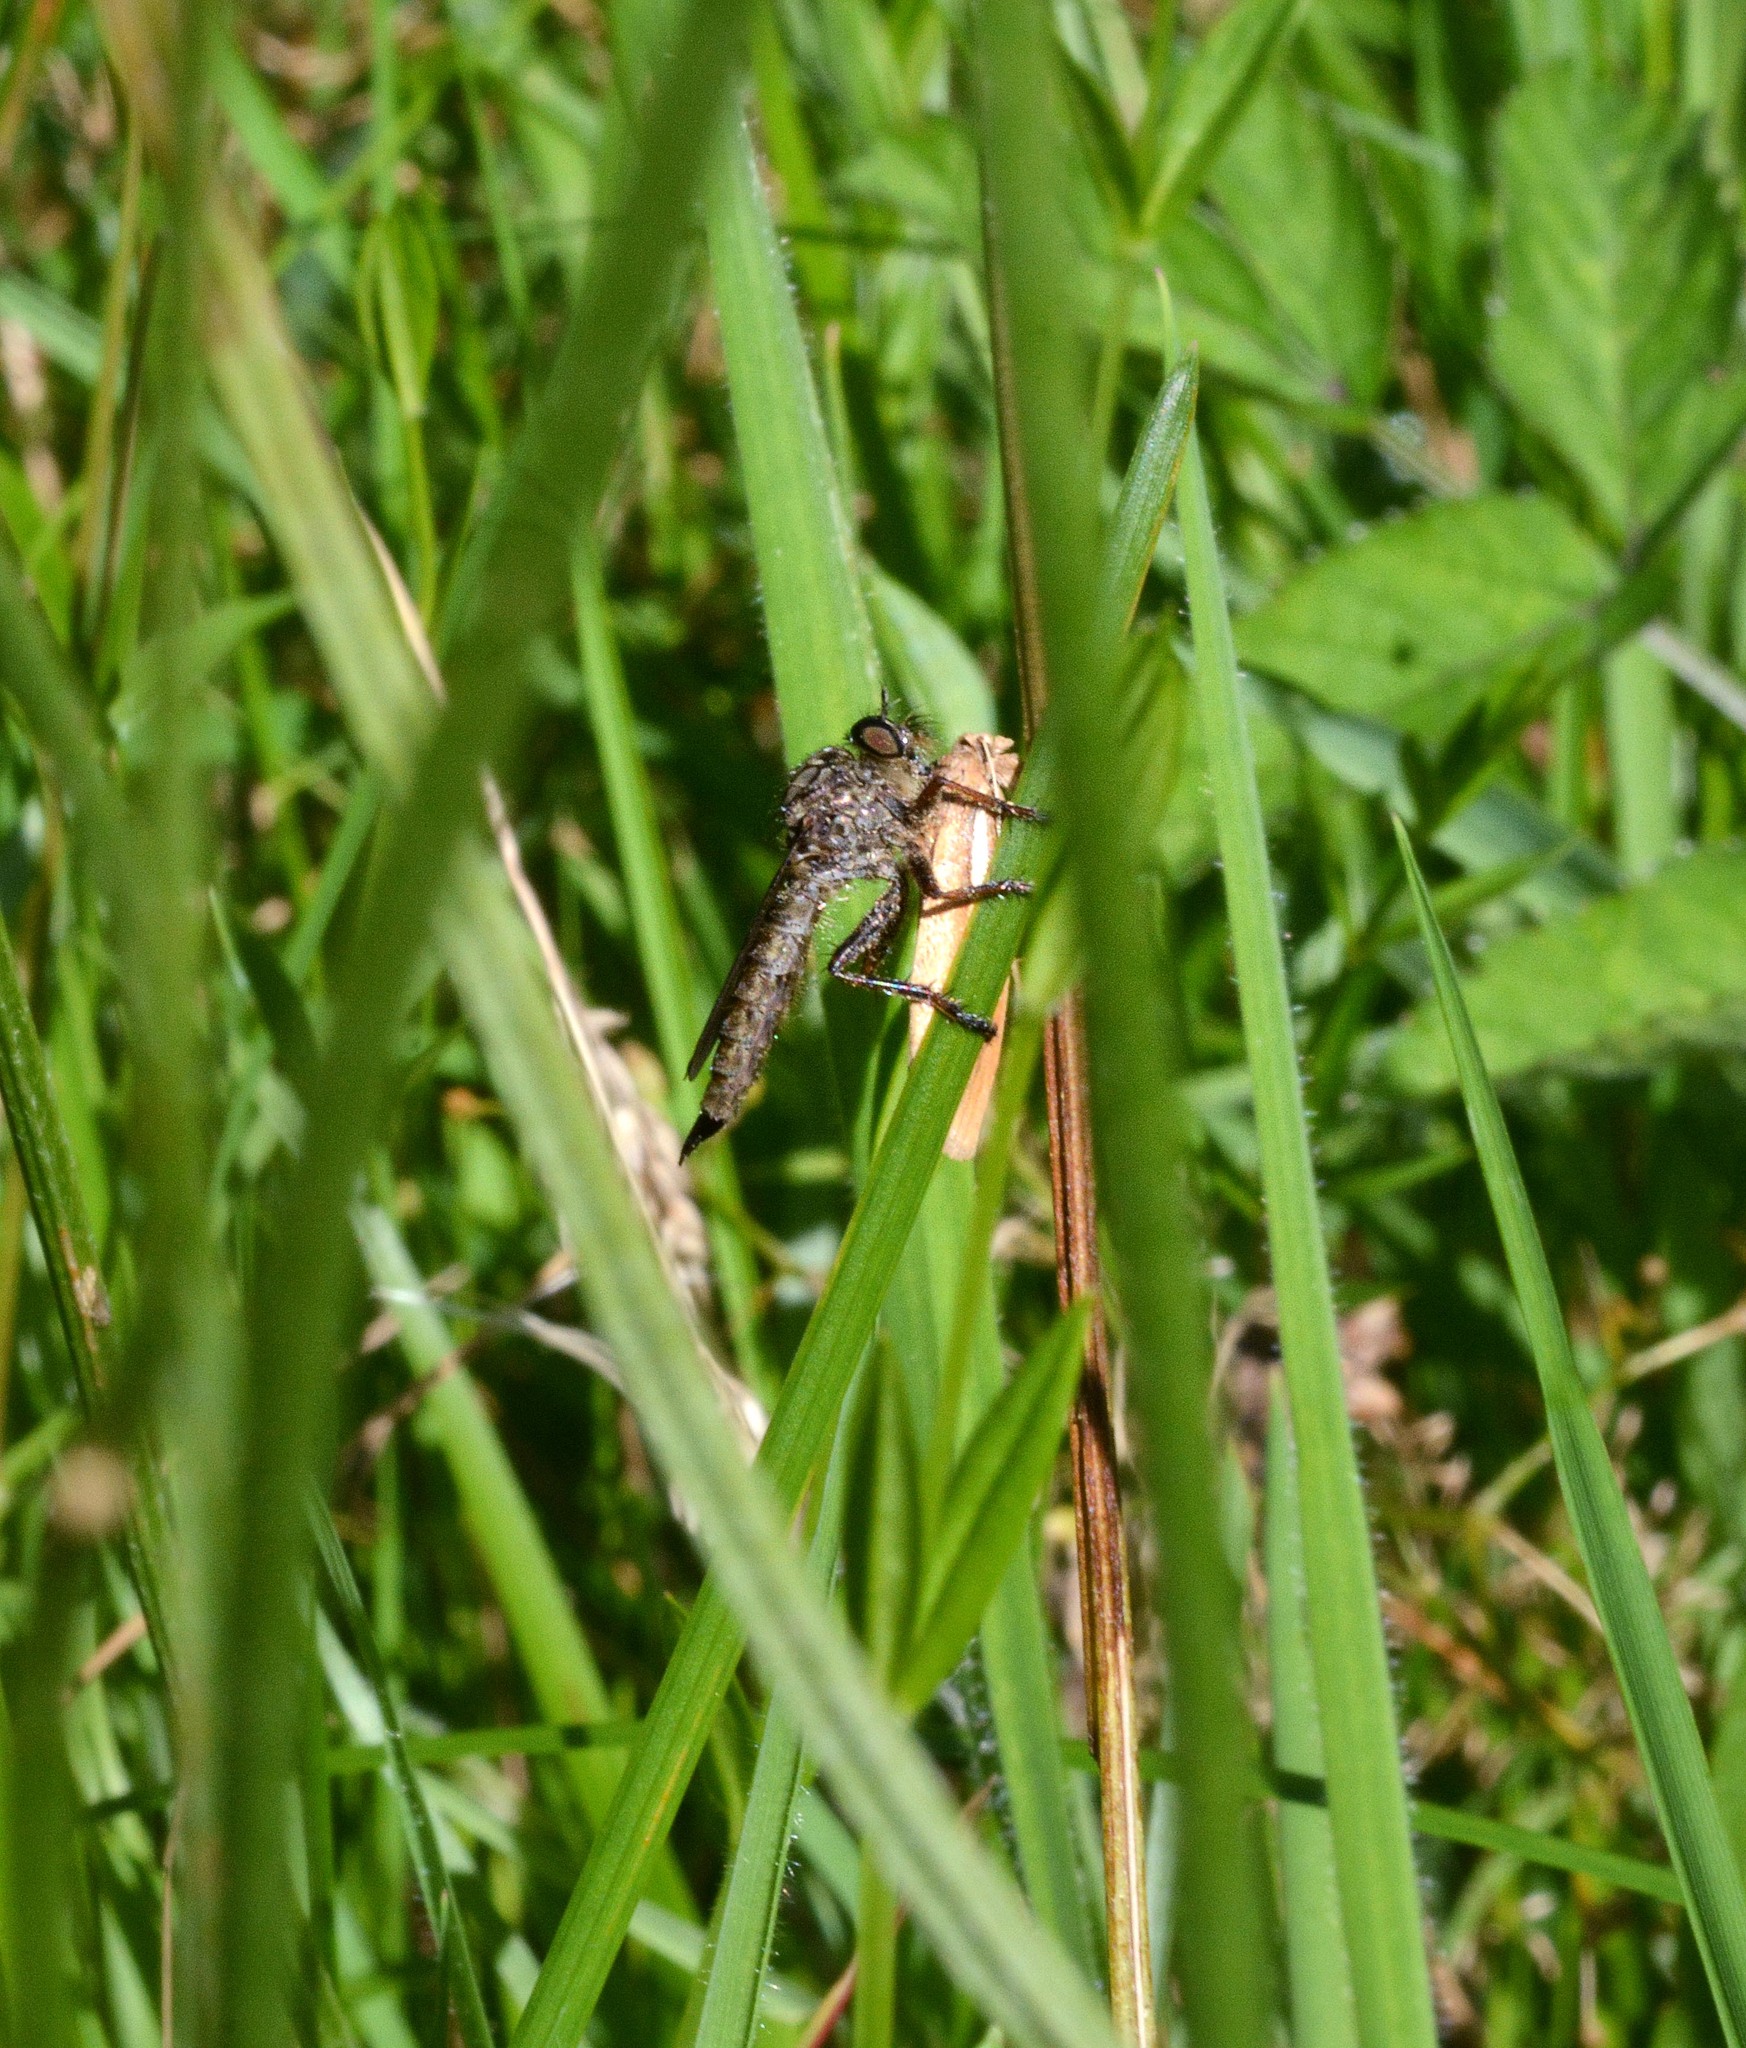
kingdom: Animalia
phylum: Arthropoda
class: Insecta
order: Diptera
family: Asilidae
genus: Machimus
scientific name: Machimus atricapillus
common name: Kite-tailed robberfly
